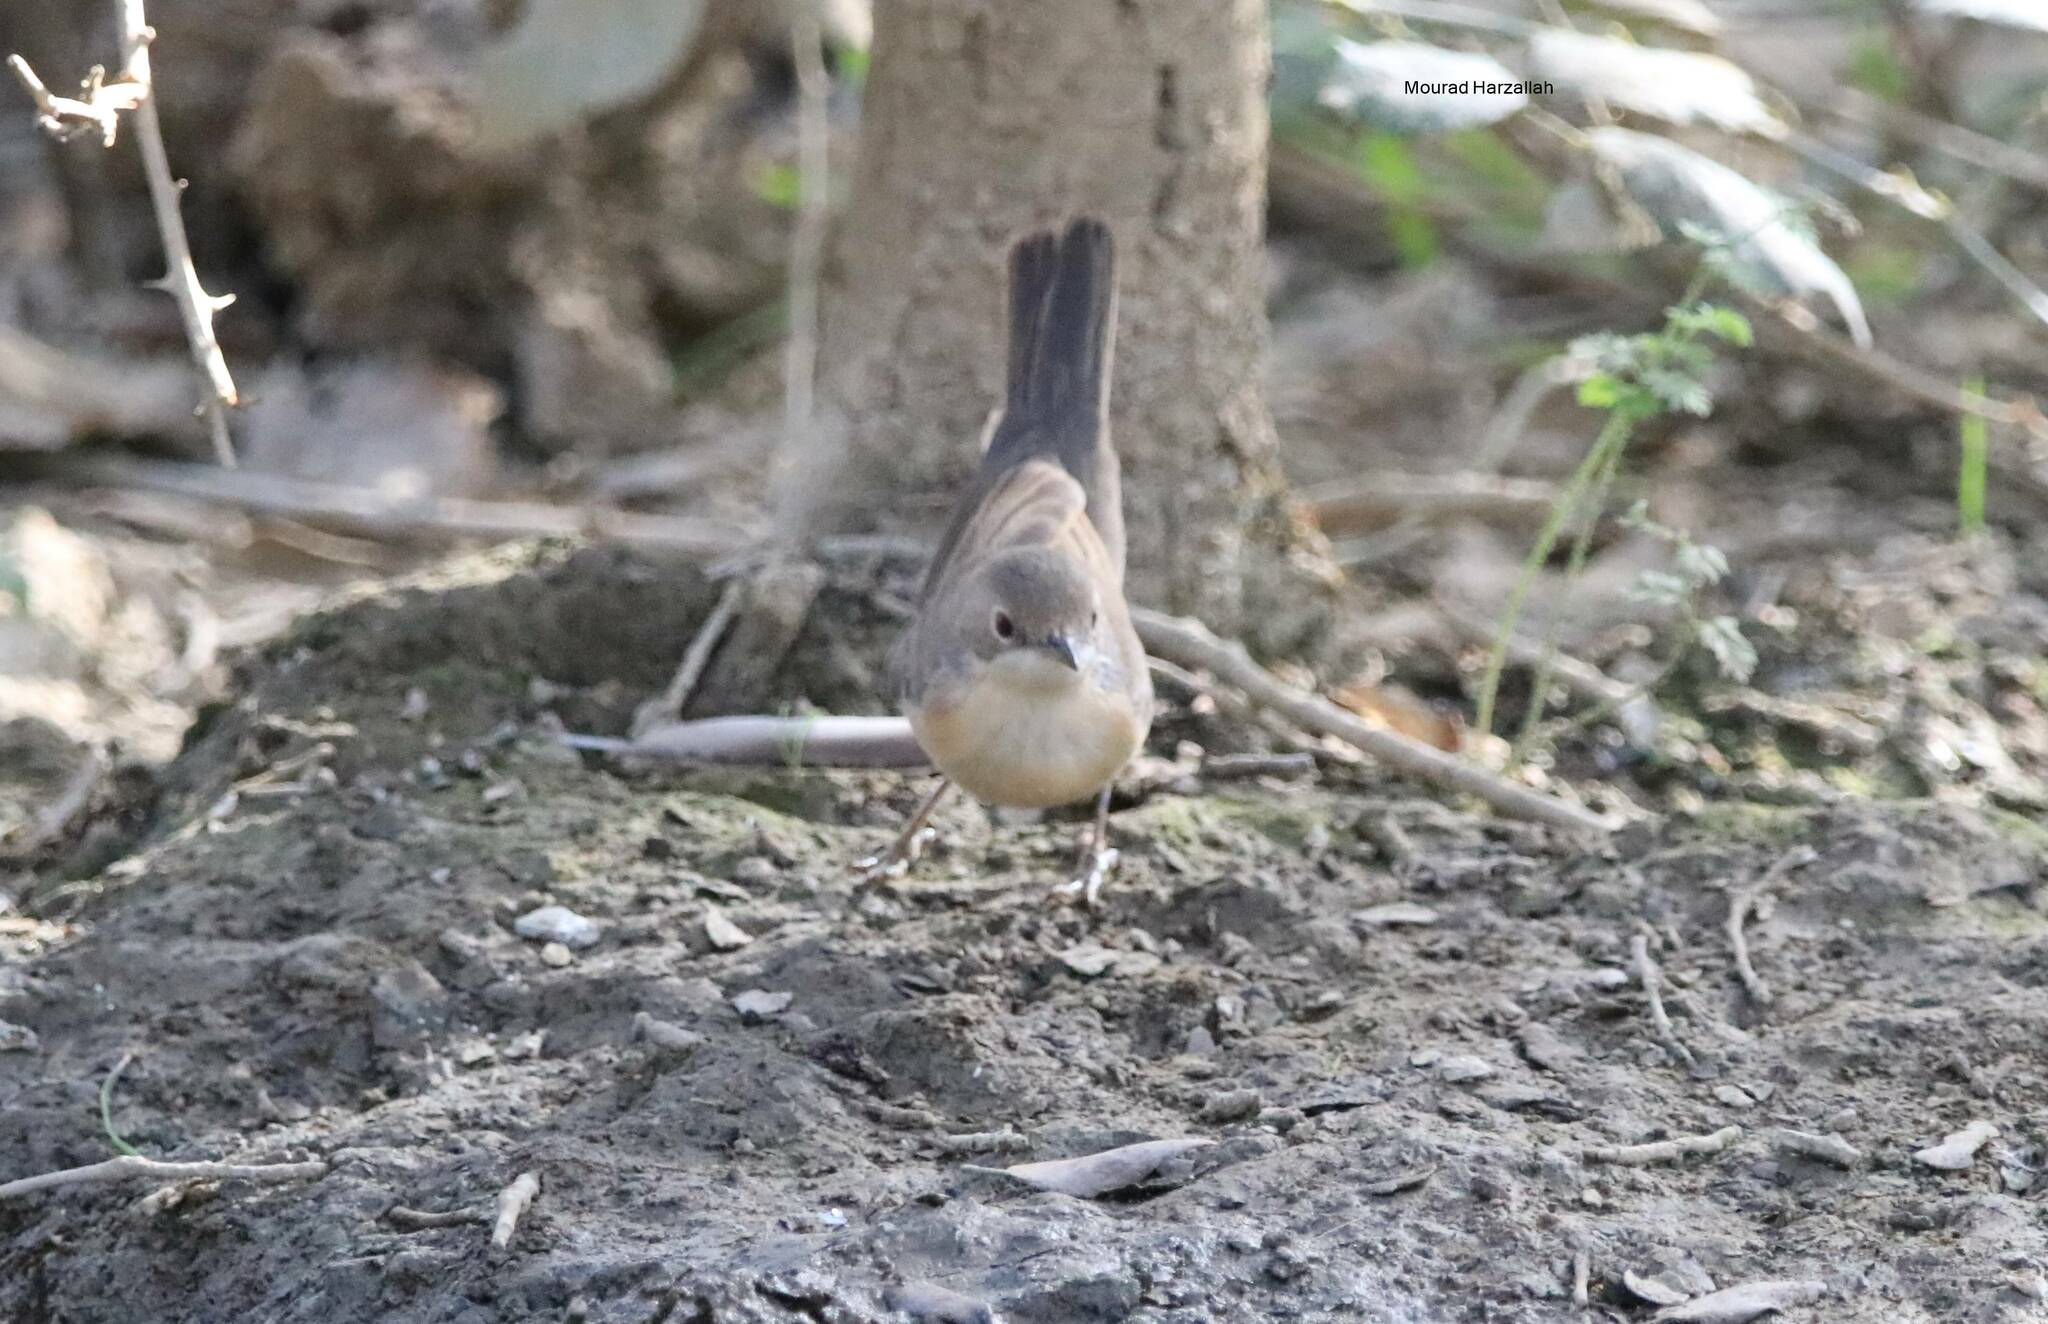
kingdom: Animalia
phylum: Chordata
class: Aves
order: Passeriformes
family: Sylviidae
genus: Curruca
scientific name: Curruca iberiae
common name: Western subalpine warbler
